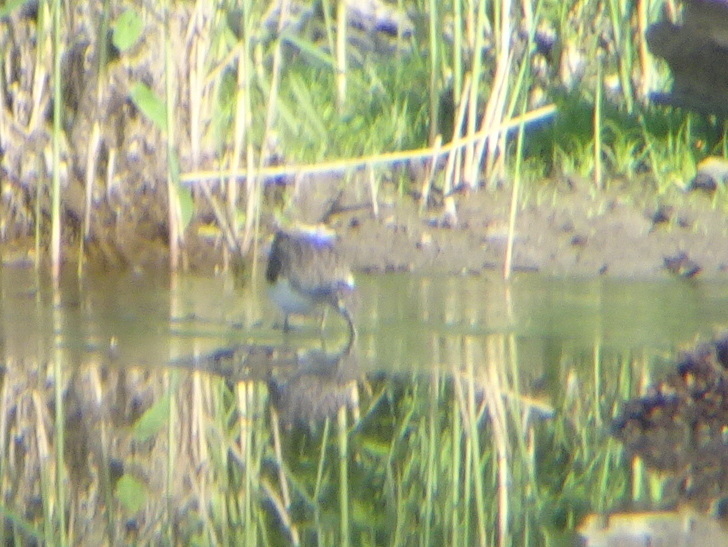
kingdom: Animalia
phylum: Chordata
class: Aves
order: Charadriiformes
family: Scolopacidae
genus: Tringa
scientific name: Tringa ochropus
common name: Green sandpiper
